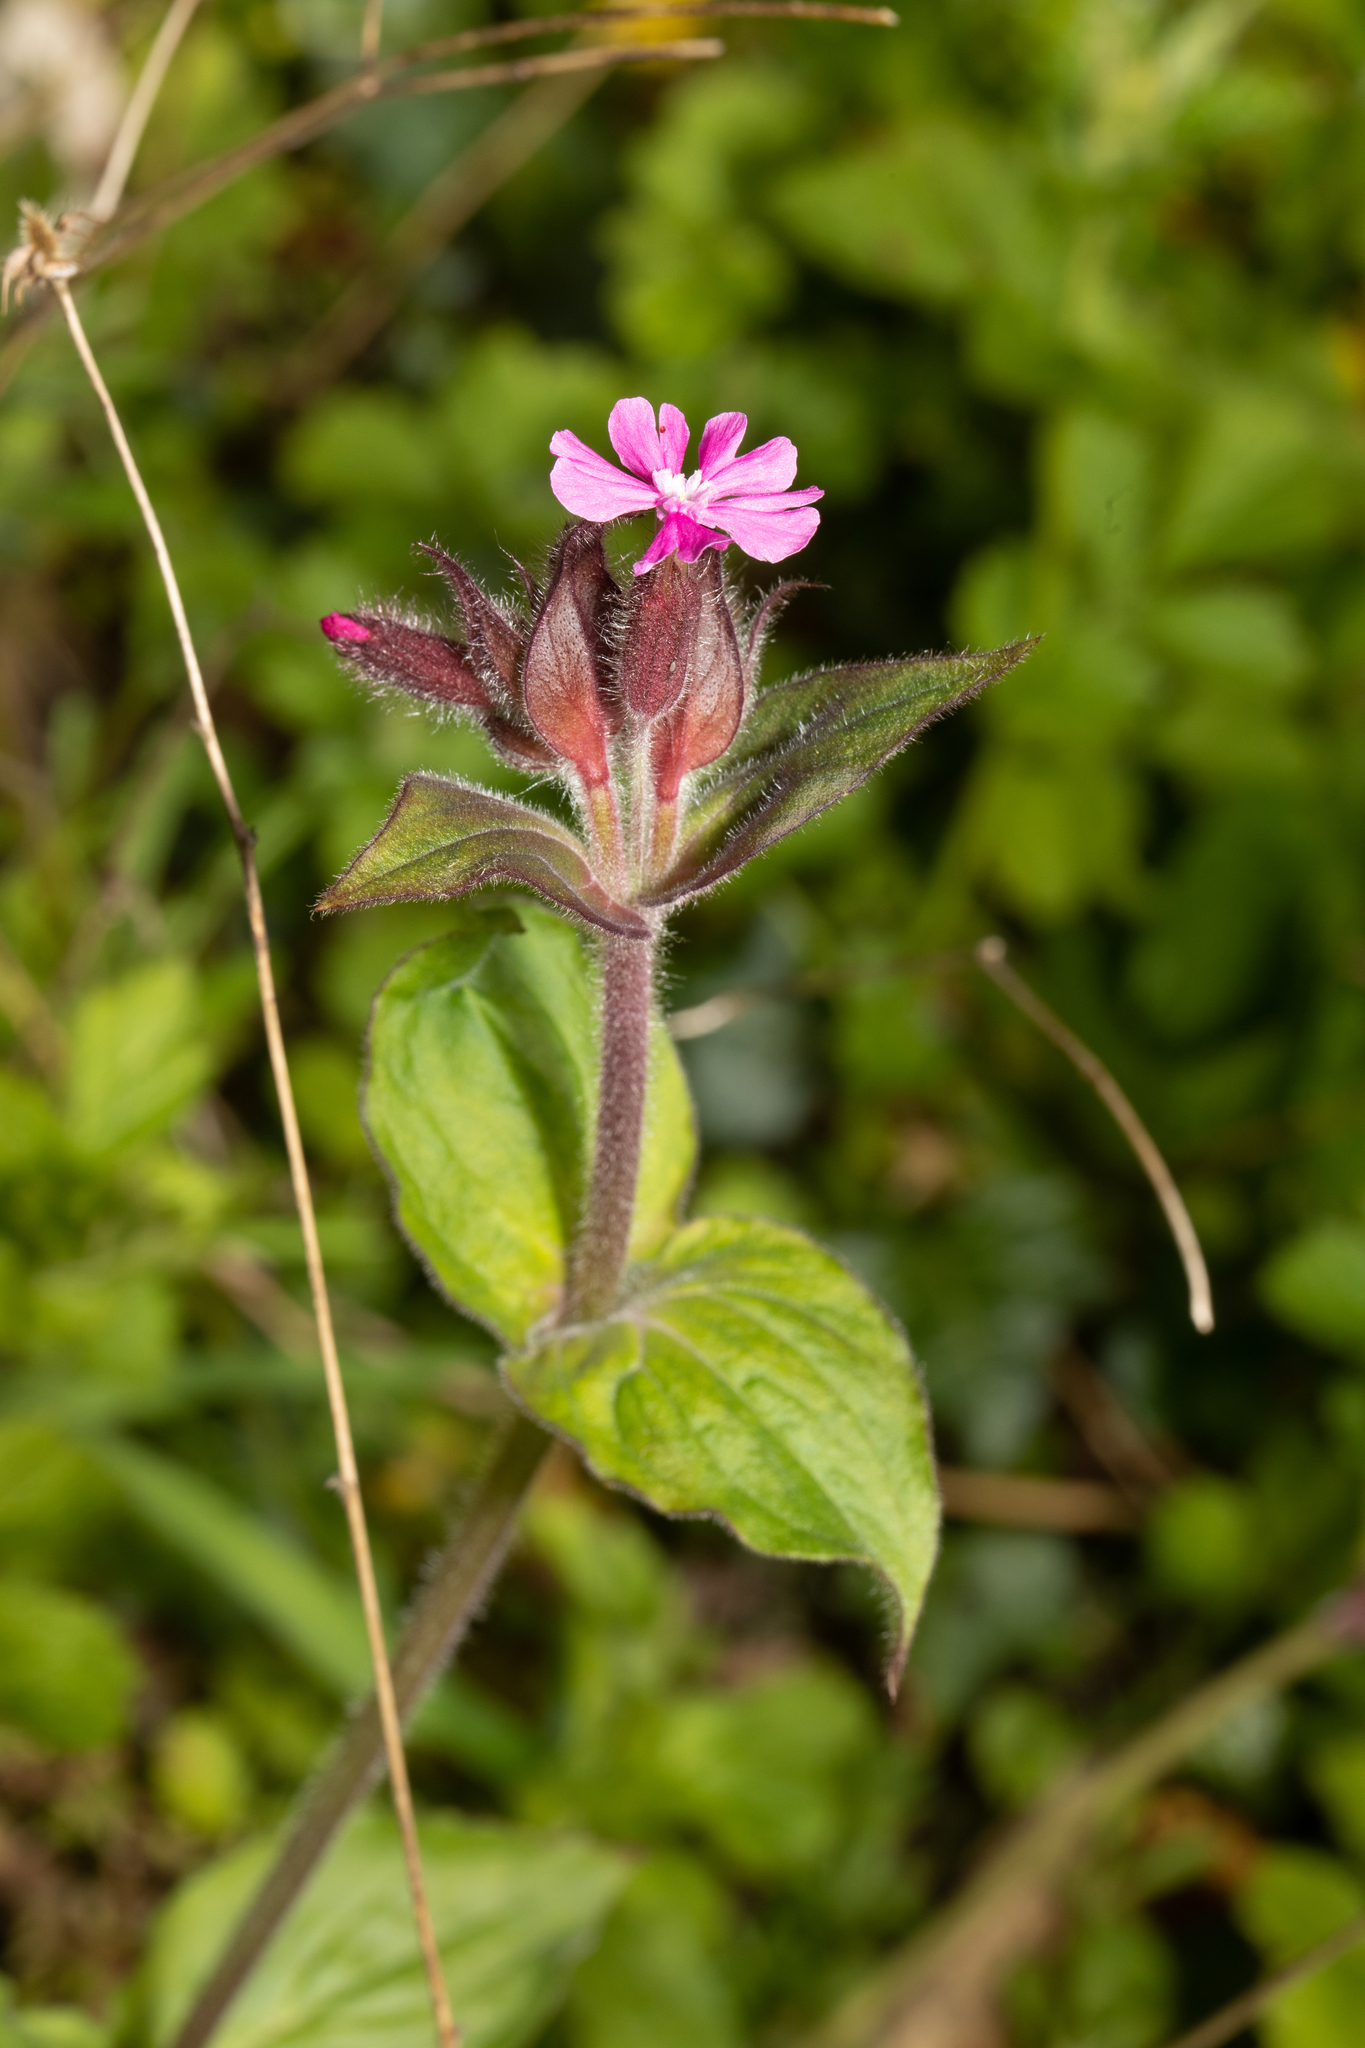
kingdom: Plantae
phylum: Tracheophyta
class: Magnoliopsida
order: Caryophyllales
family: Caryophyllaceae
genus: Silene
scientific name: Silene dioica
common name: Red campion
